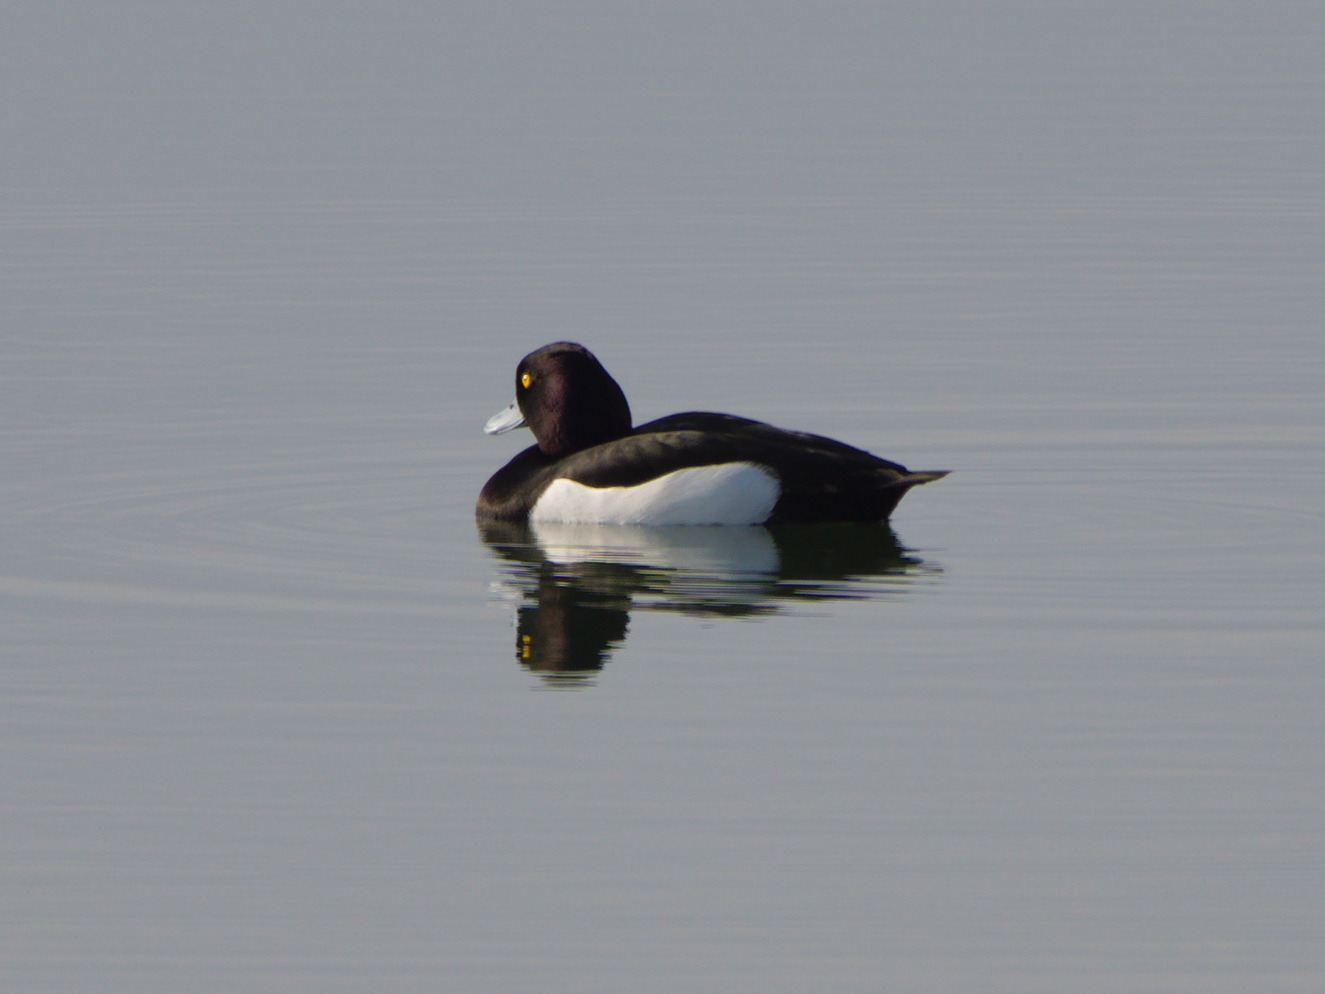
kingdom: Animalia
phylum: Chordata
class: Aves
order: Anseriformes
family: Anatidae
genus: Aythya
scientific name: Aythya fuligula
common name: Tufted duck
